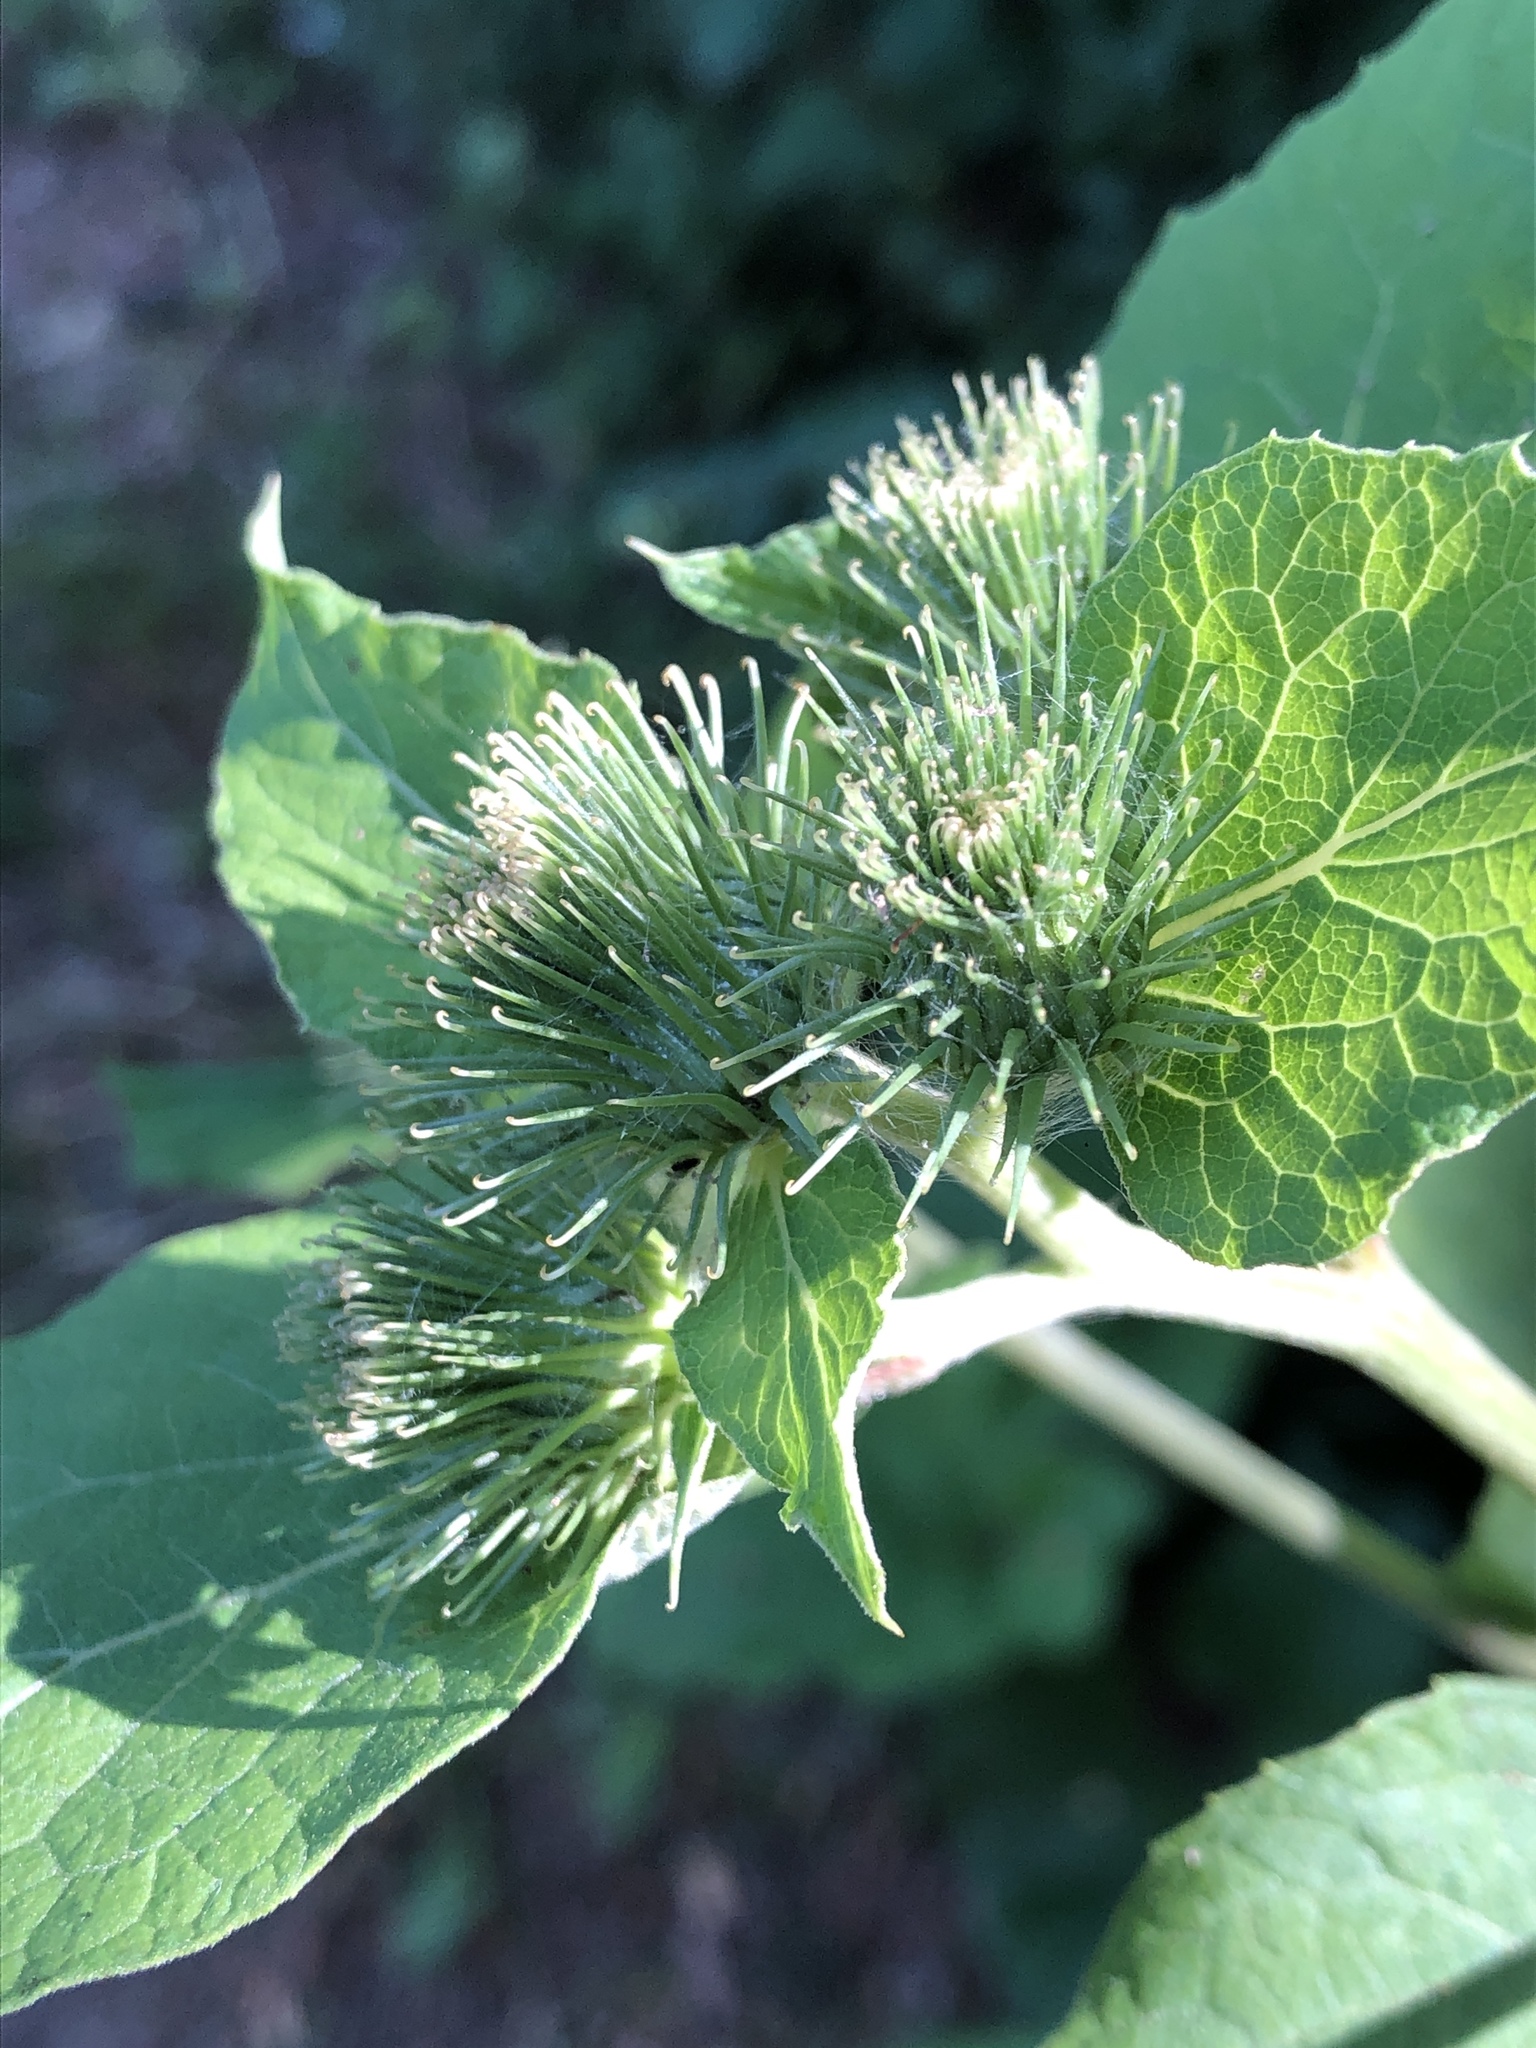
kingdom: Plantae
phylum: Tracheophyta
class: Magnoliopsida
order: Asterales
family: Asteraceae
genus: Arctium
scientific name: Arctium lappa
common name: Greater burdock
